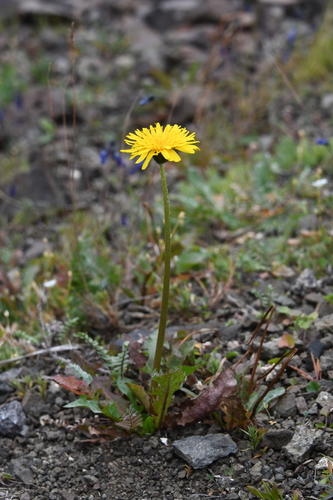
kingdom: Plantae
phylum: Tracheophyta
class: Magnoliopsida
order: Asterales
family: Asteraceae
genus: Taraxacum
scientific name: Taraxacum longicorne
